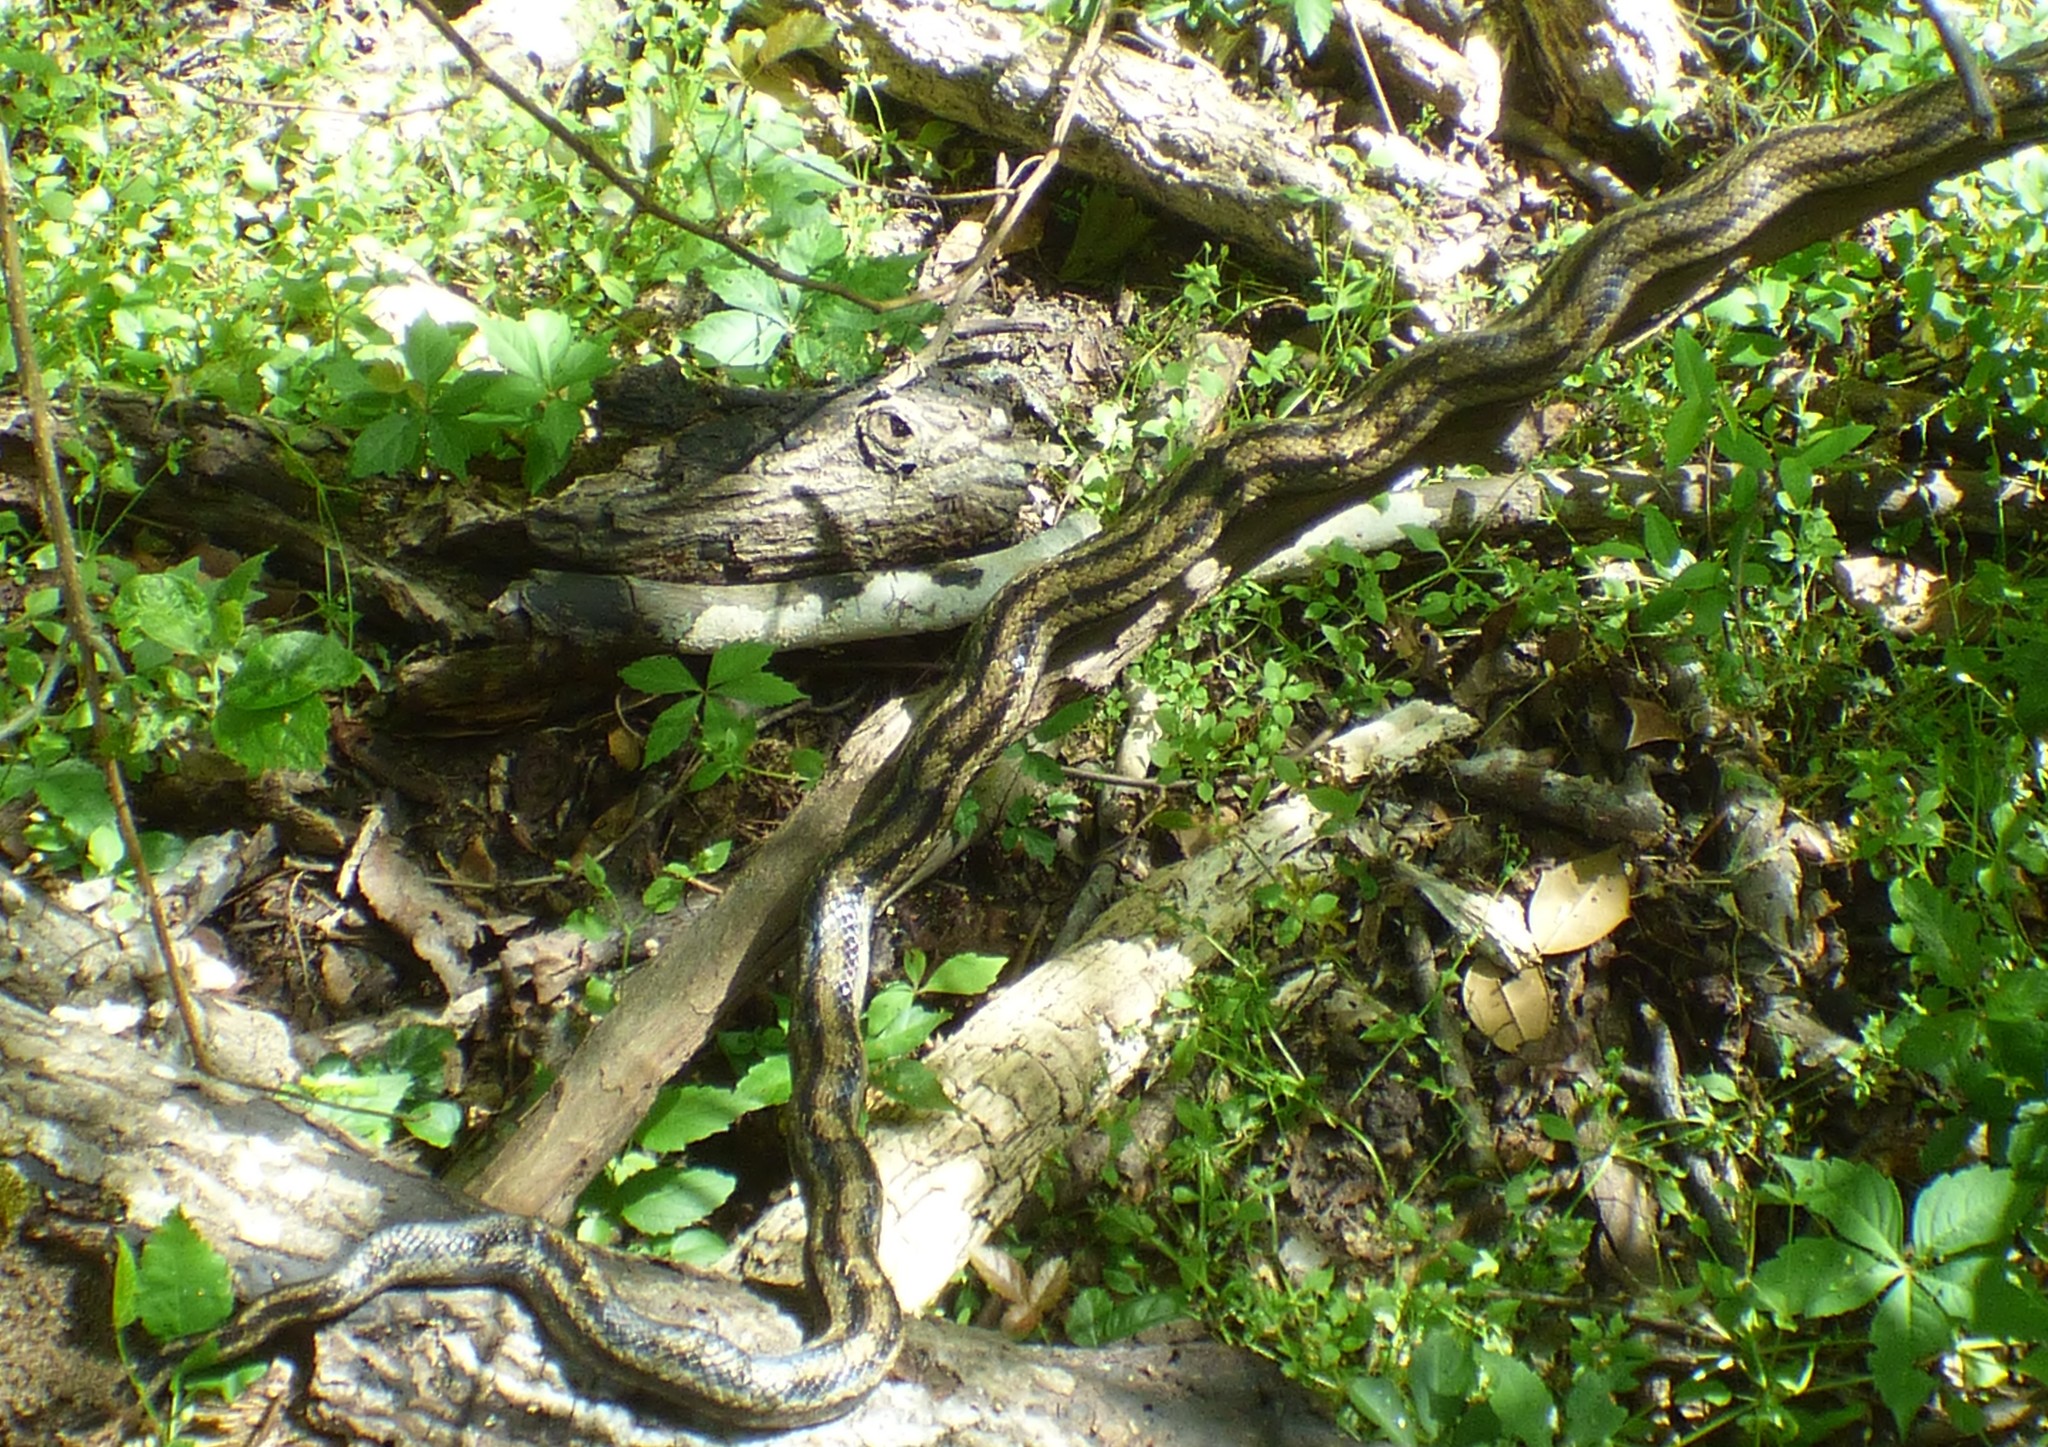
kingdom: Animalia
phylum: Chordata
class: Squamata
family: Colubridae
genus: Pantherophis
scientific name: Pantherophis alleghaniensis
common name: Eastern rat snake
